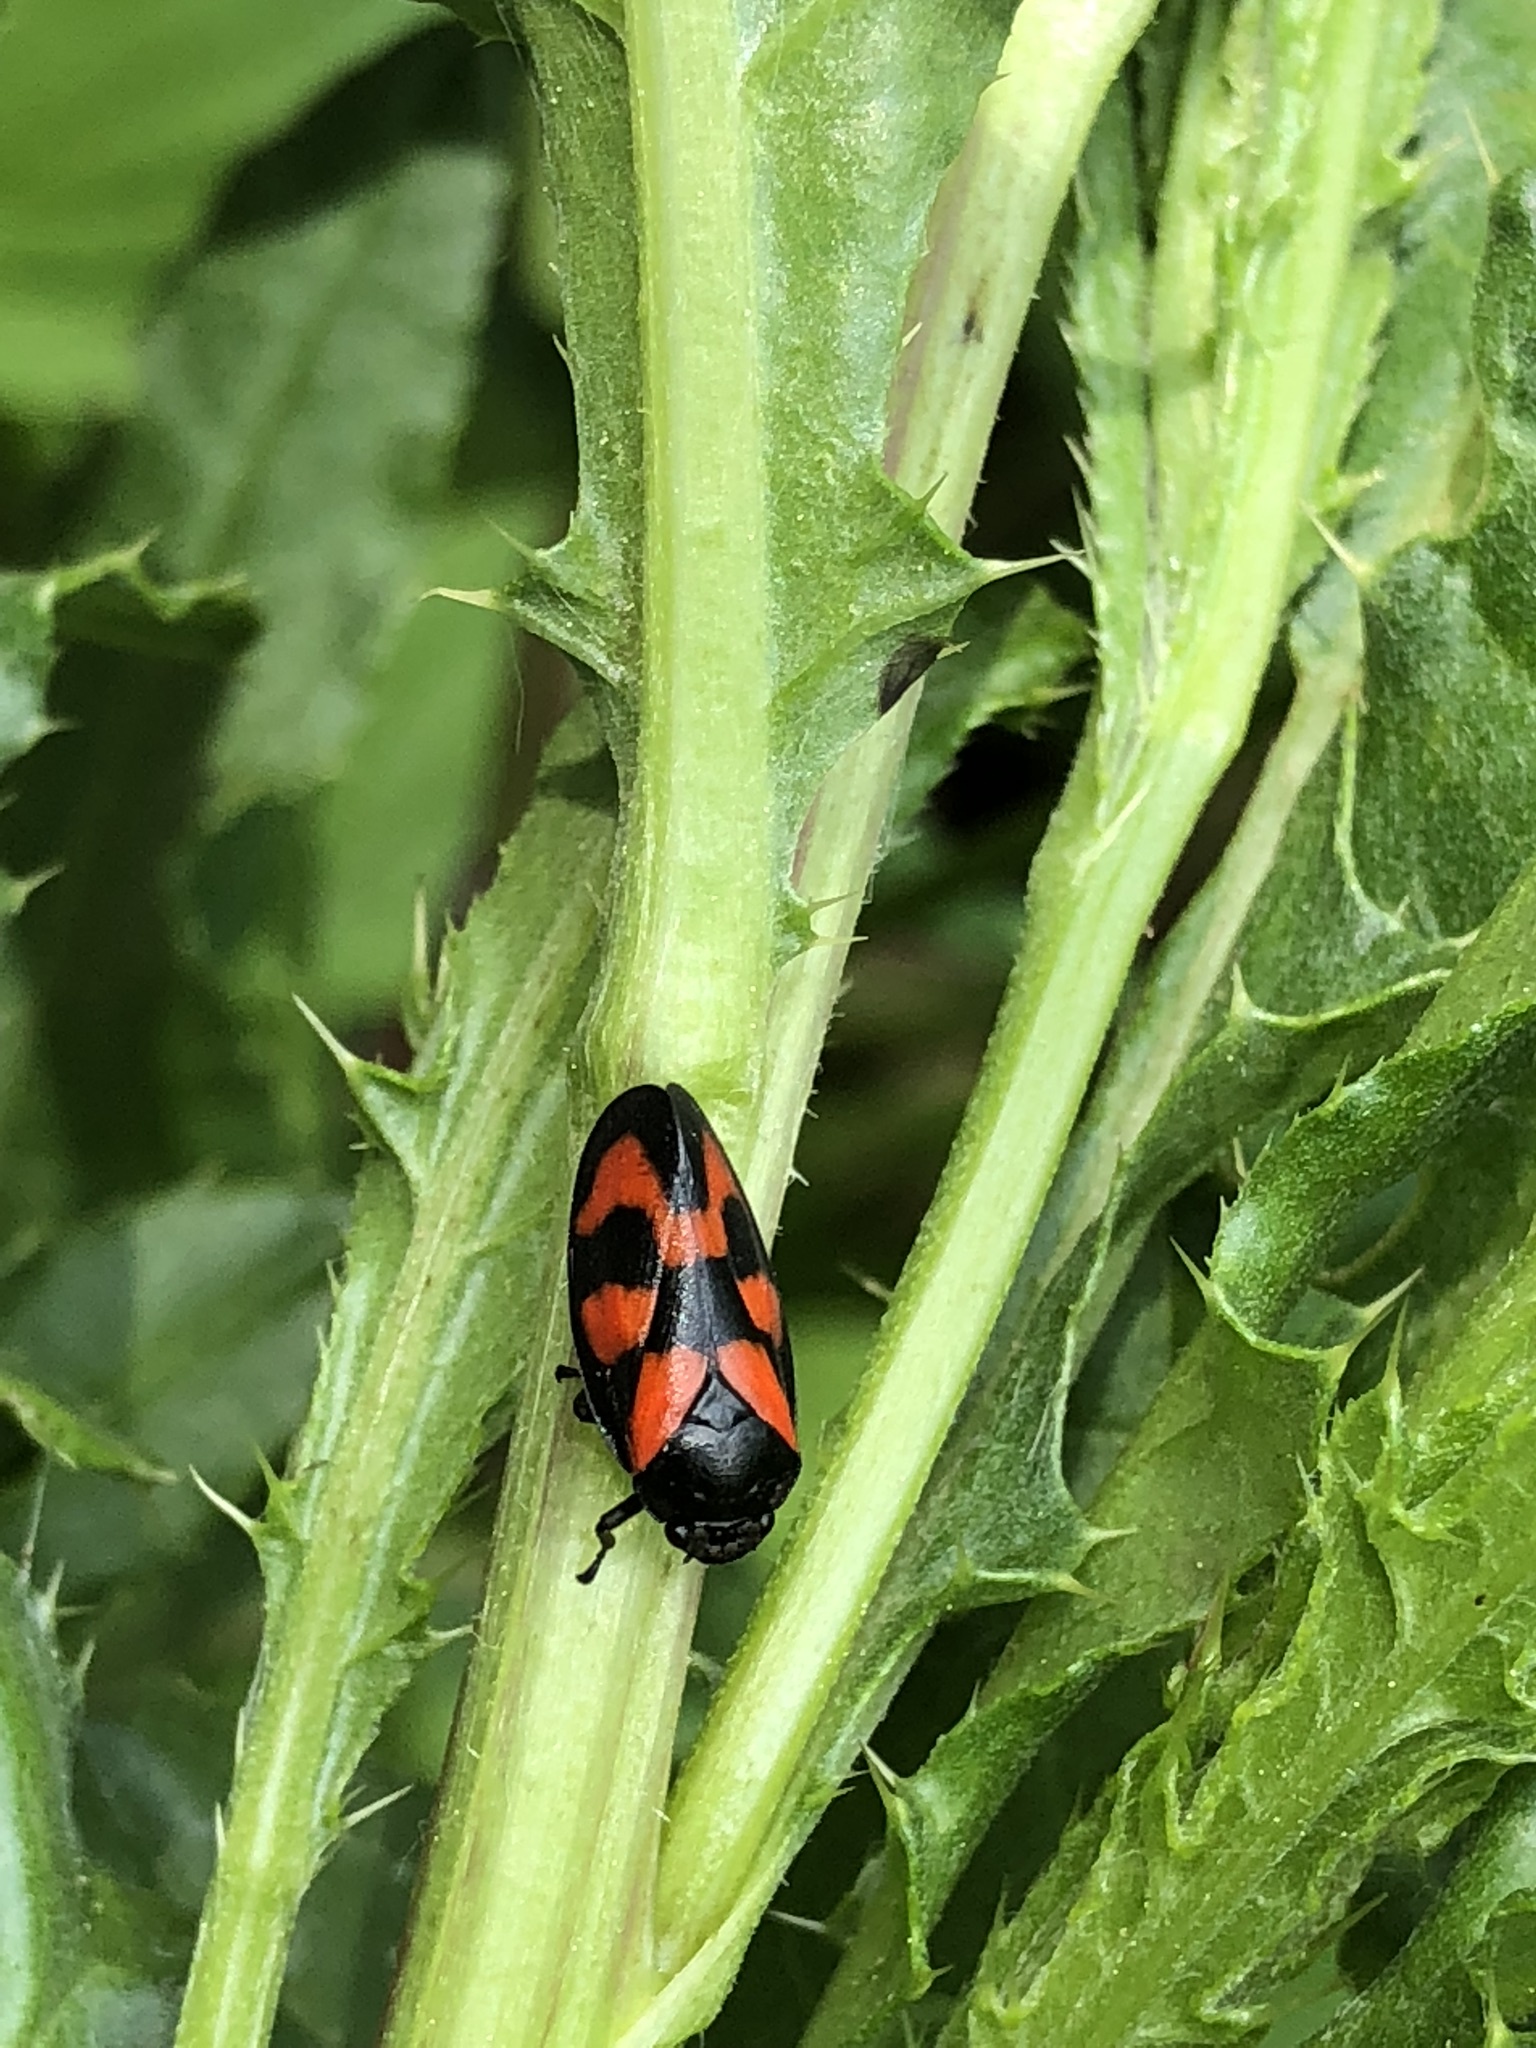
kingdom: Animalia
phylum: Arthropoda
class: Insecta
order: Hemiptera
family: Cercopidae
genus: Cercopis
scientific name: Cercopis vulnerata
